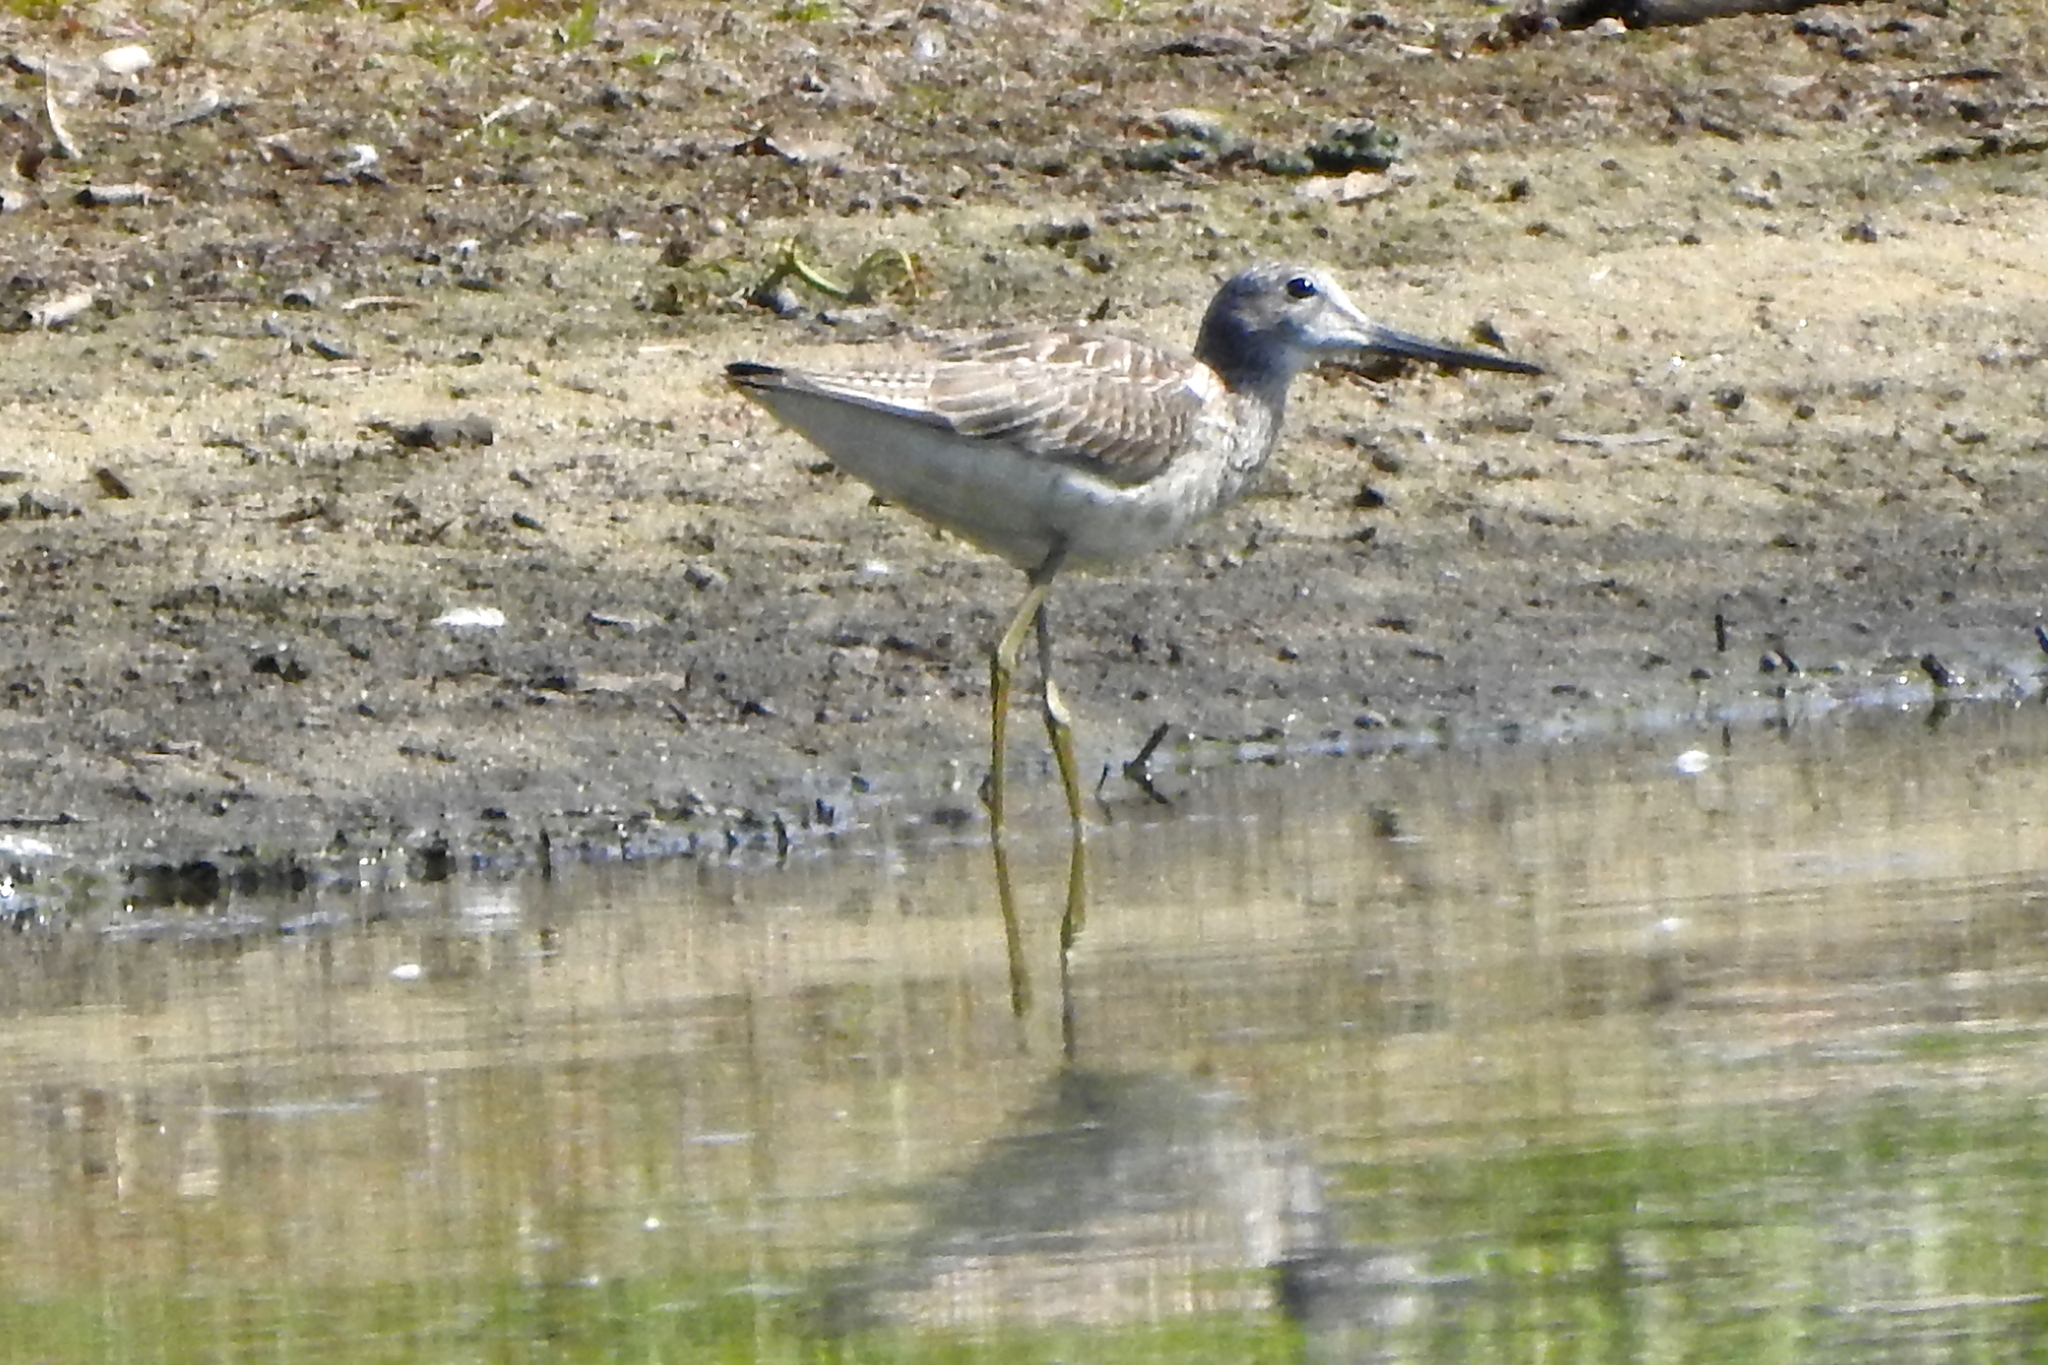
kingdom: Animalia
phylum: Chordata
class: Aves
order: Charadriiformes
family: Scolopacidae
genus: Tringa
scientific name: Tringa nebularia
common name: Common greenshank
